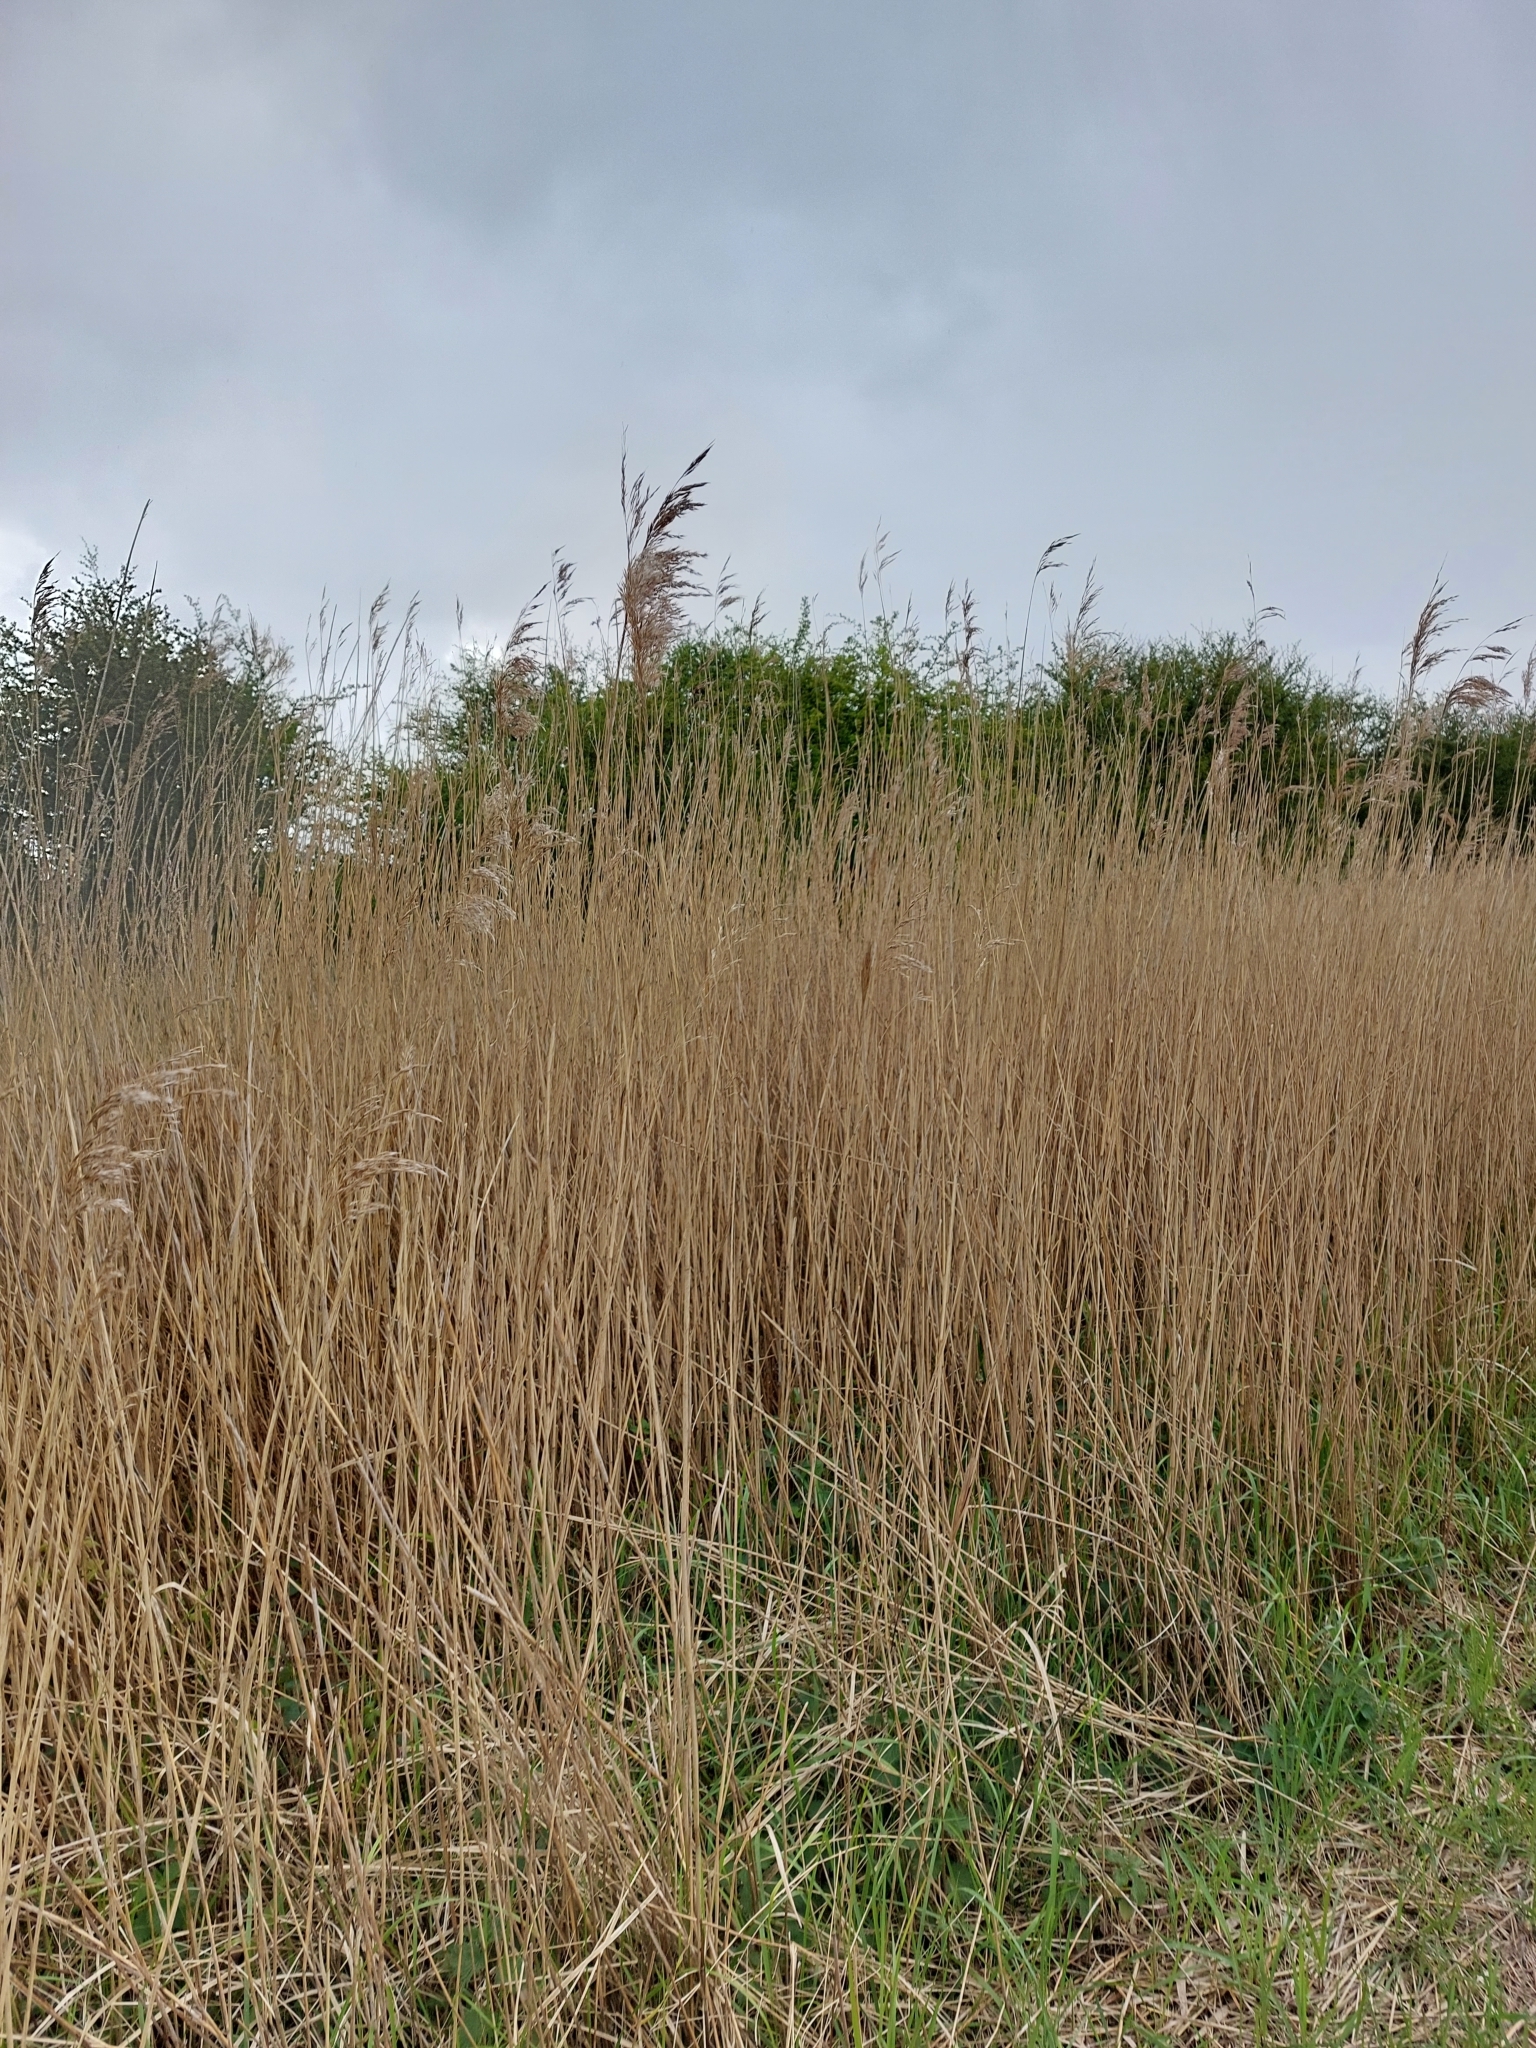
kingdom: Plantae
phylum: Tracheophyta
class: Liliopsida
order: Poales
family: Poaceae
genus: Phragmites
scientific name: Phragmites australis
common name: Common reed
